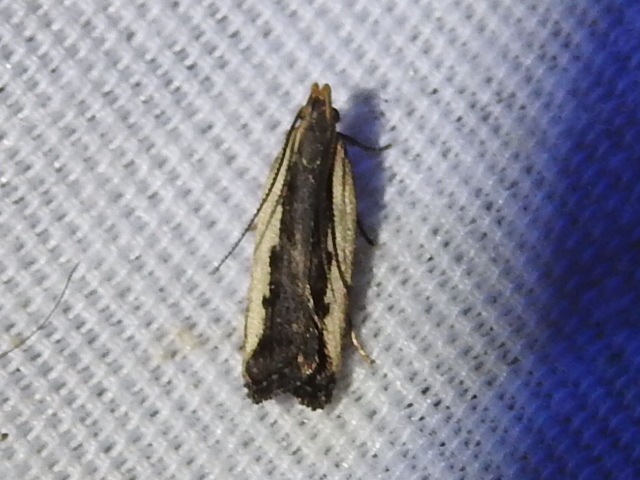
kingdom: Animalia
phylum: Arthropoda
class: Insecta
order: Lepidoptera
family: Gelechiidae
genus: Dichomeris
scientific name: Dichomeris serrativittella
